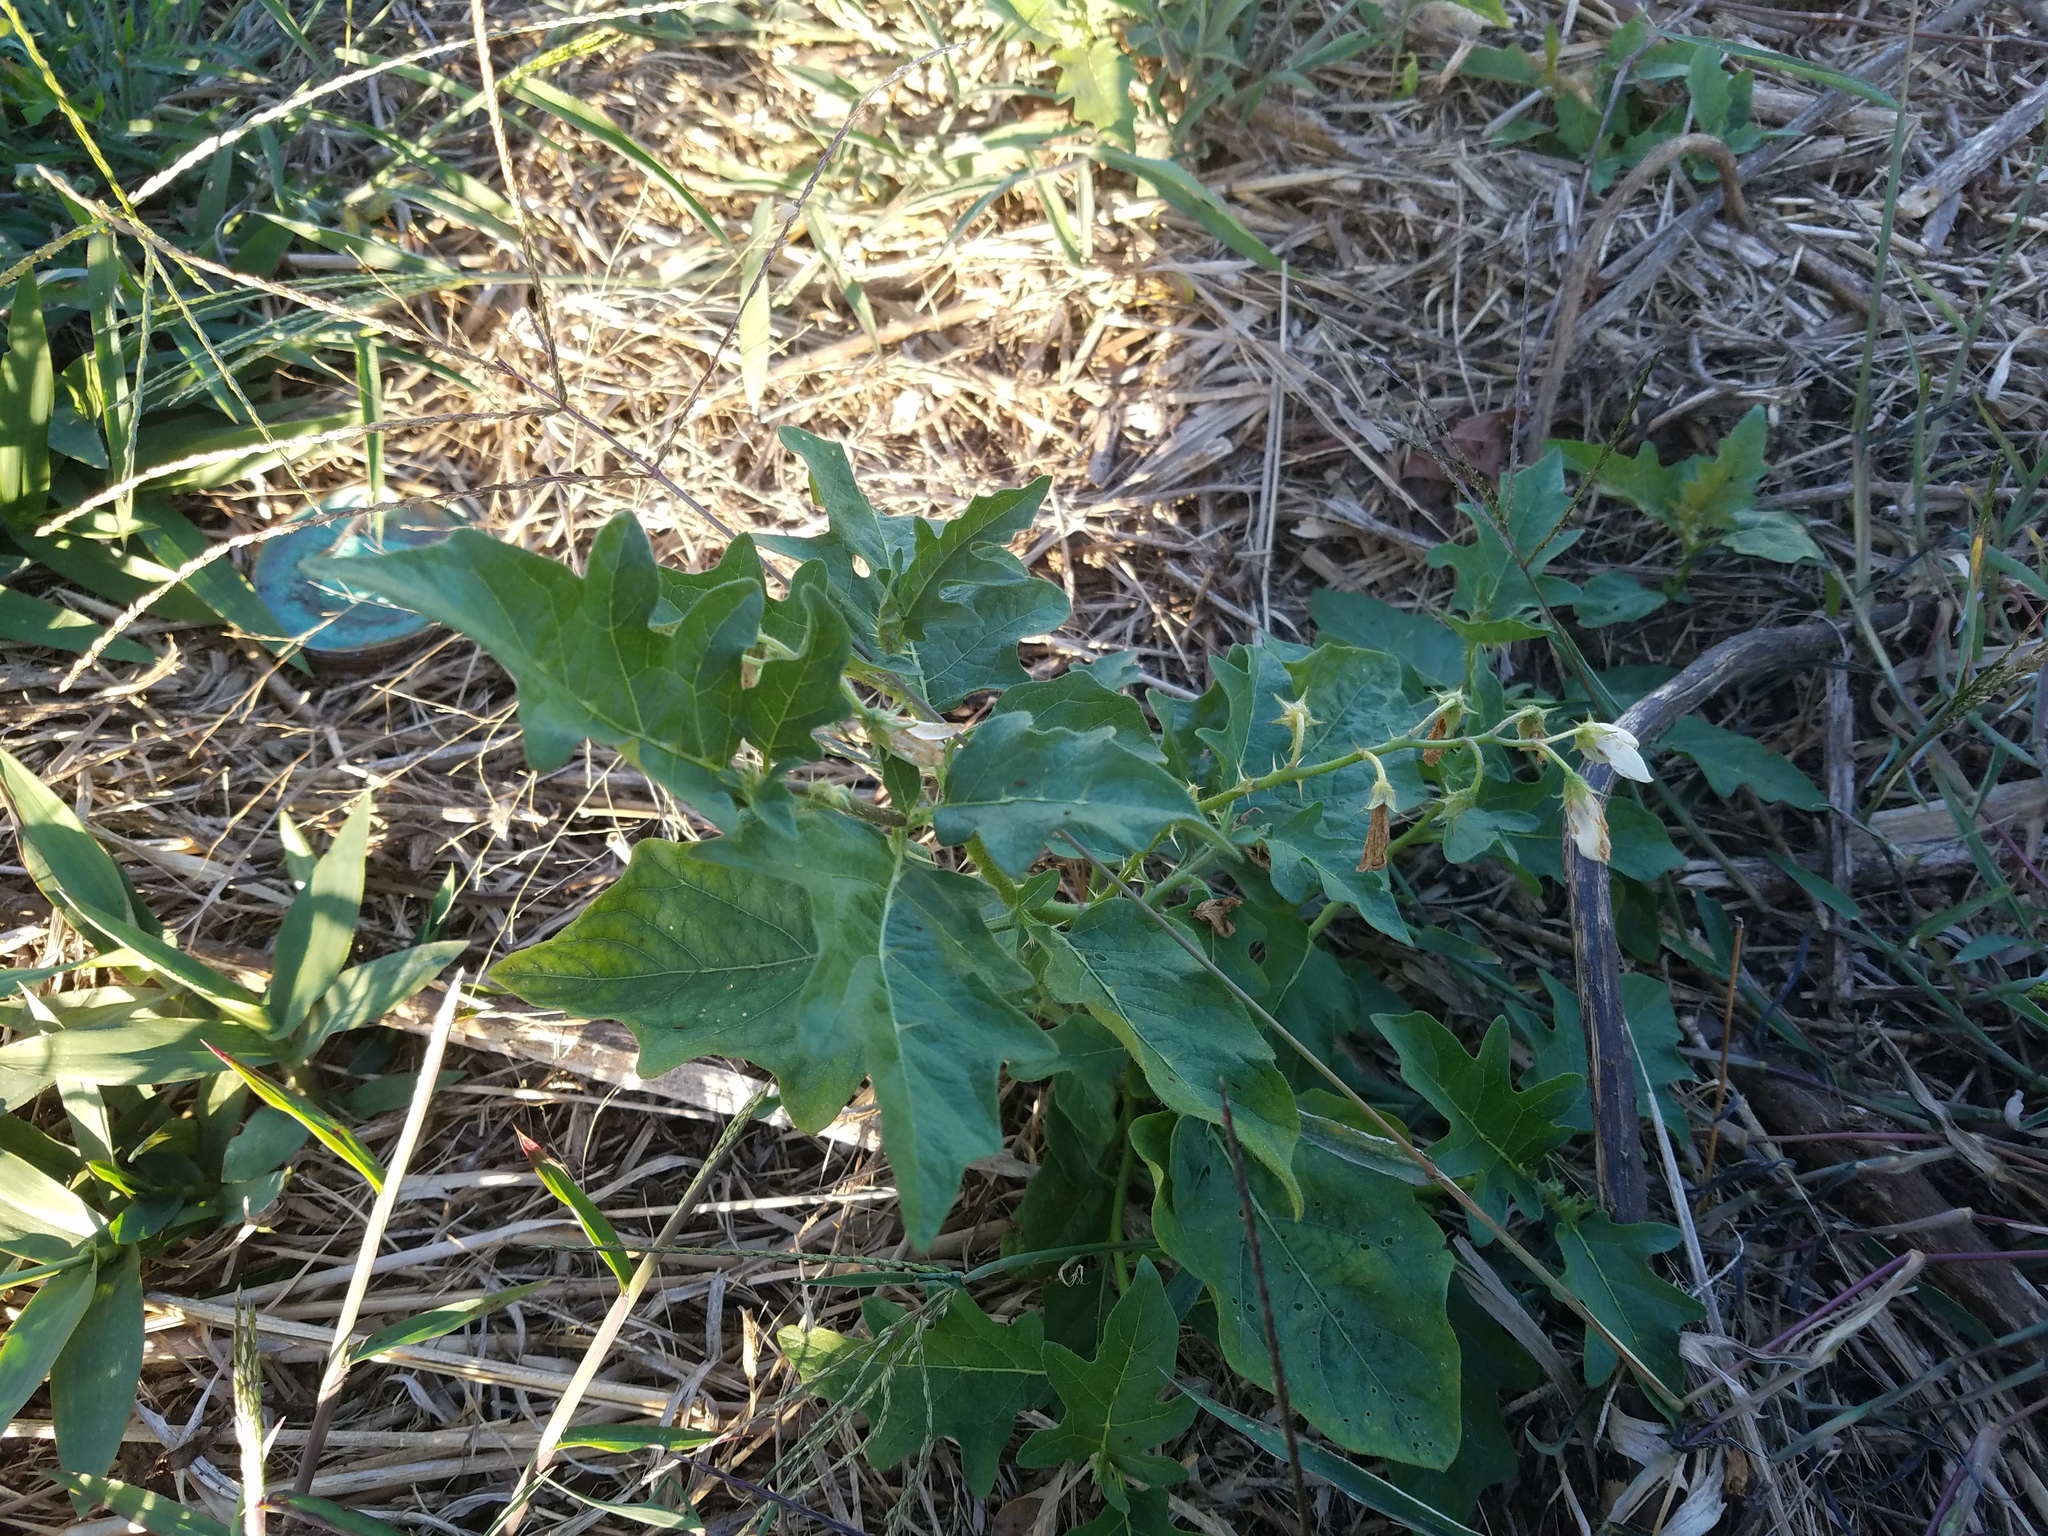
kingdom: Plantae
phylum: Tracheophyta
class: Magnoliopsida
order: Solanales
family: Solanaceae
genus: Solanum
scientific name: Solanum carolinense
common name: Horse-nettle
